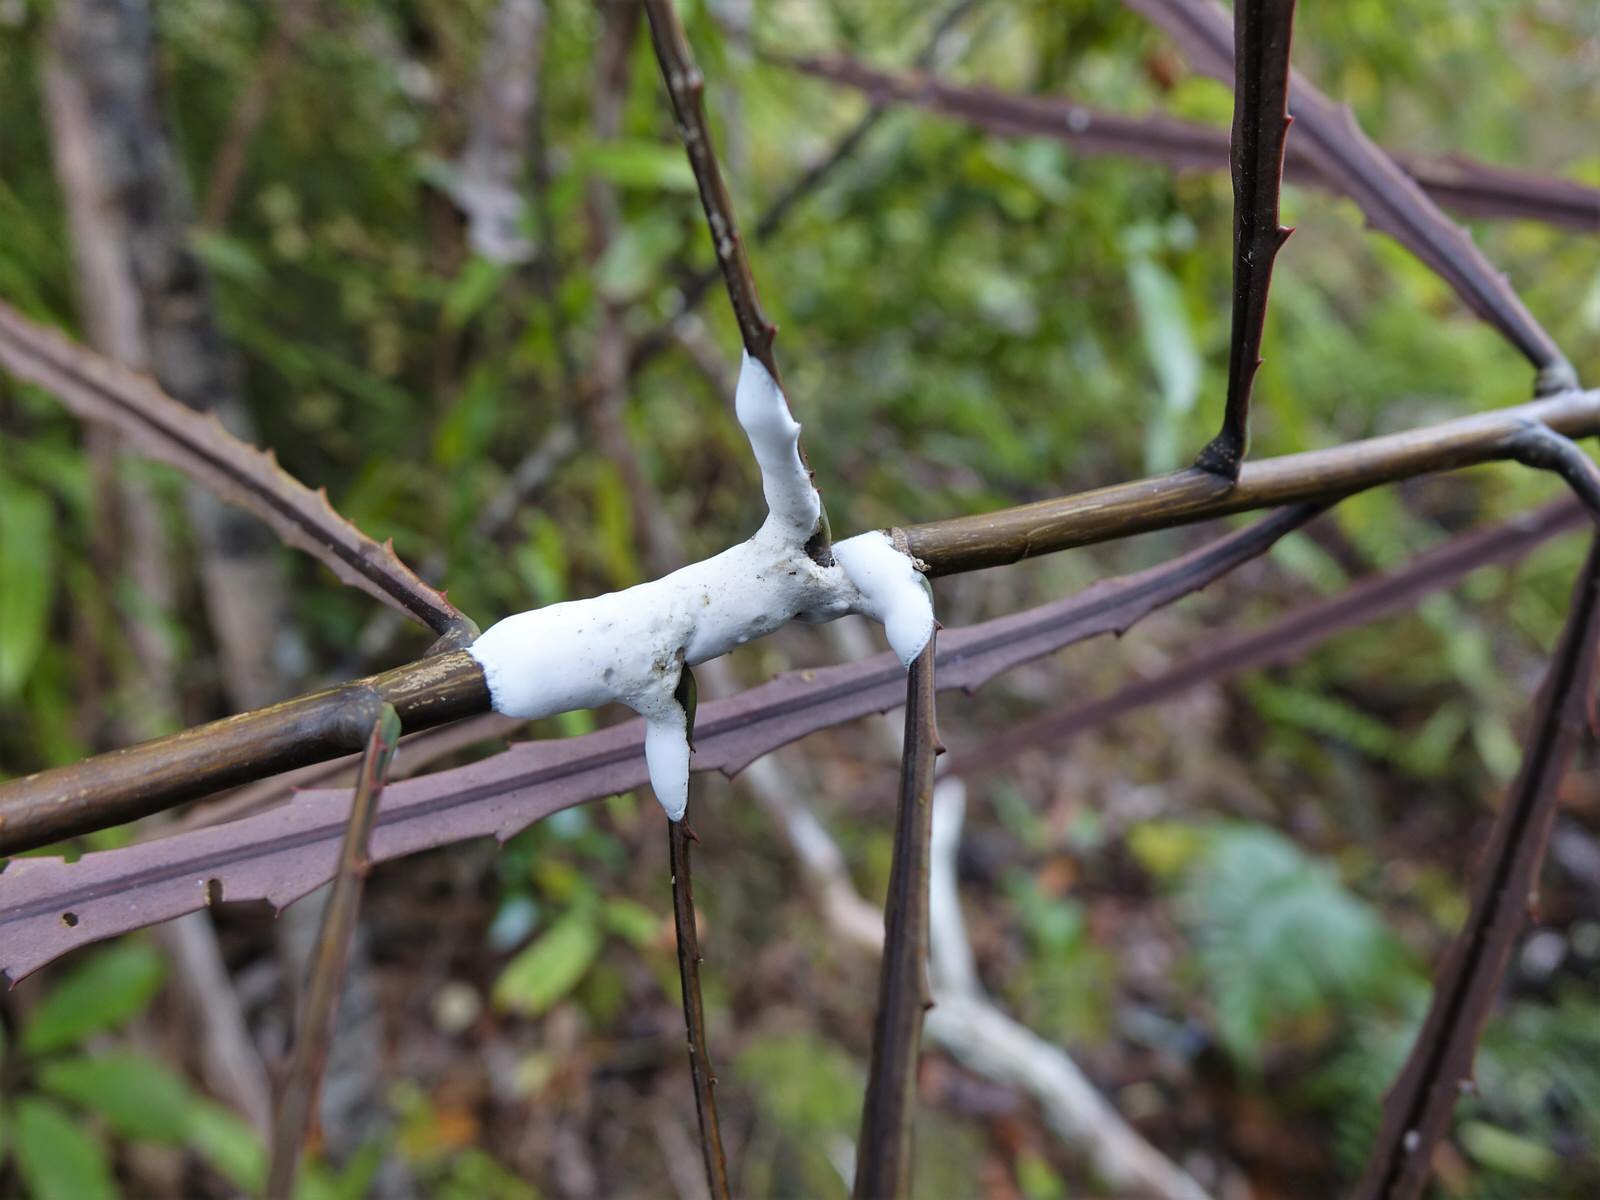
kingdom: Fungi
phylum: Basidiomycota
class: Pucciniomycetes
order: Septobasidiales
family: Septobasidiaceae
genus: Septobasidium
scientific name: Septobasidium simmondsii
